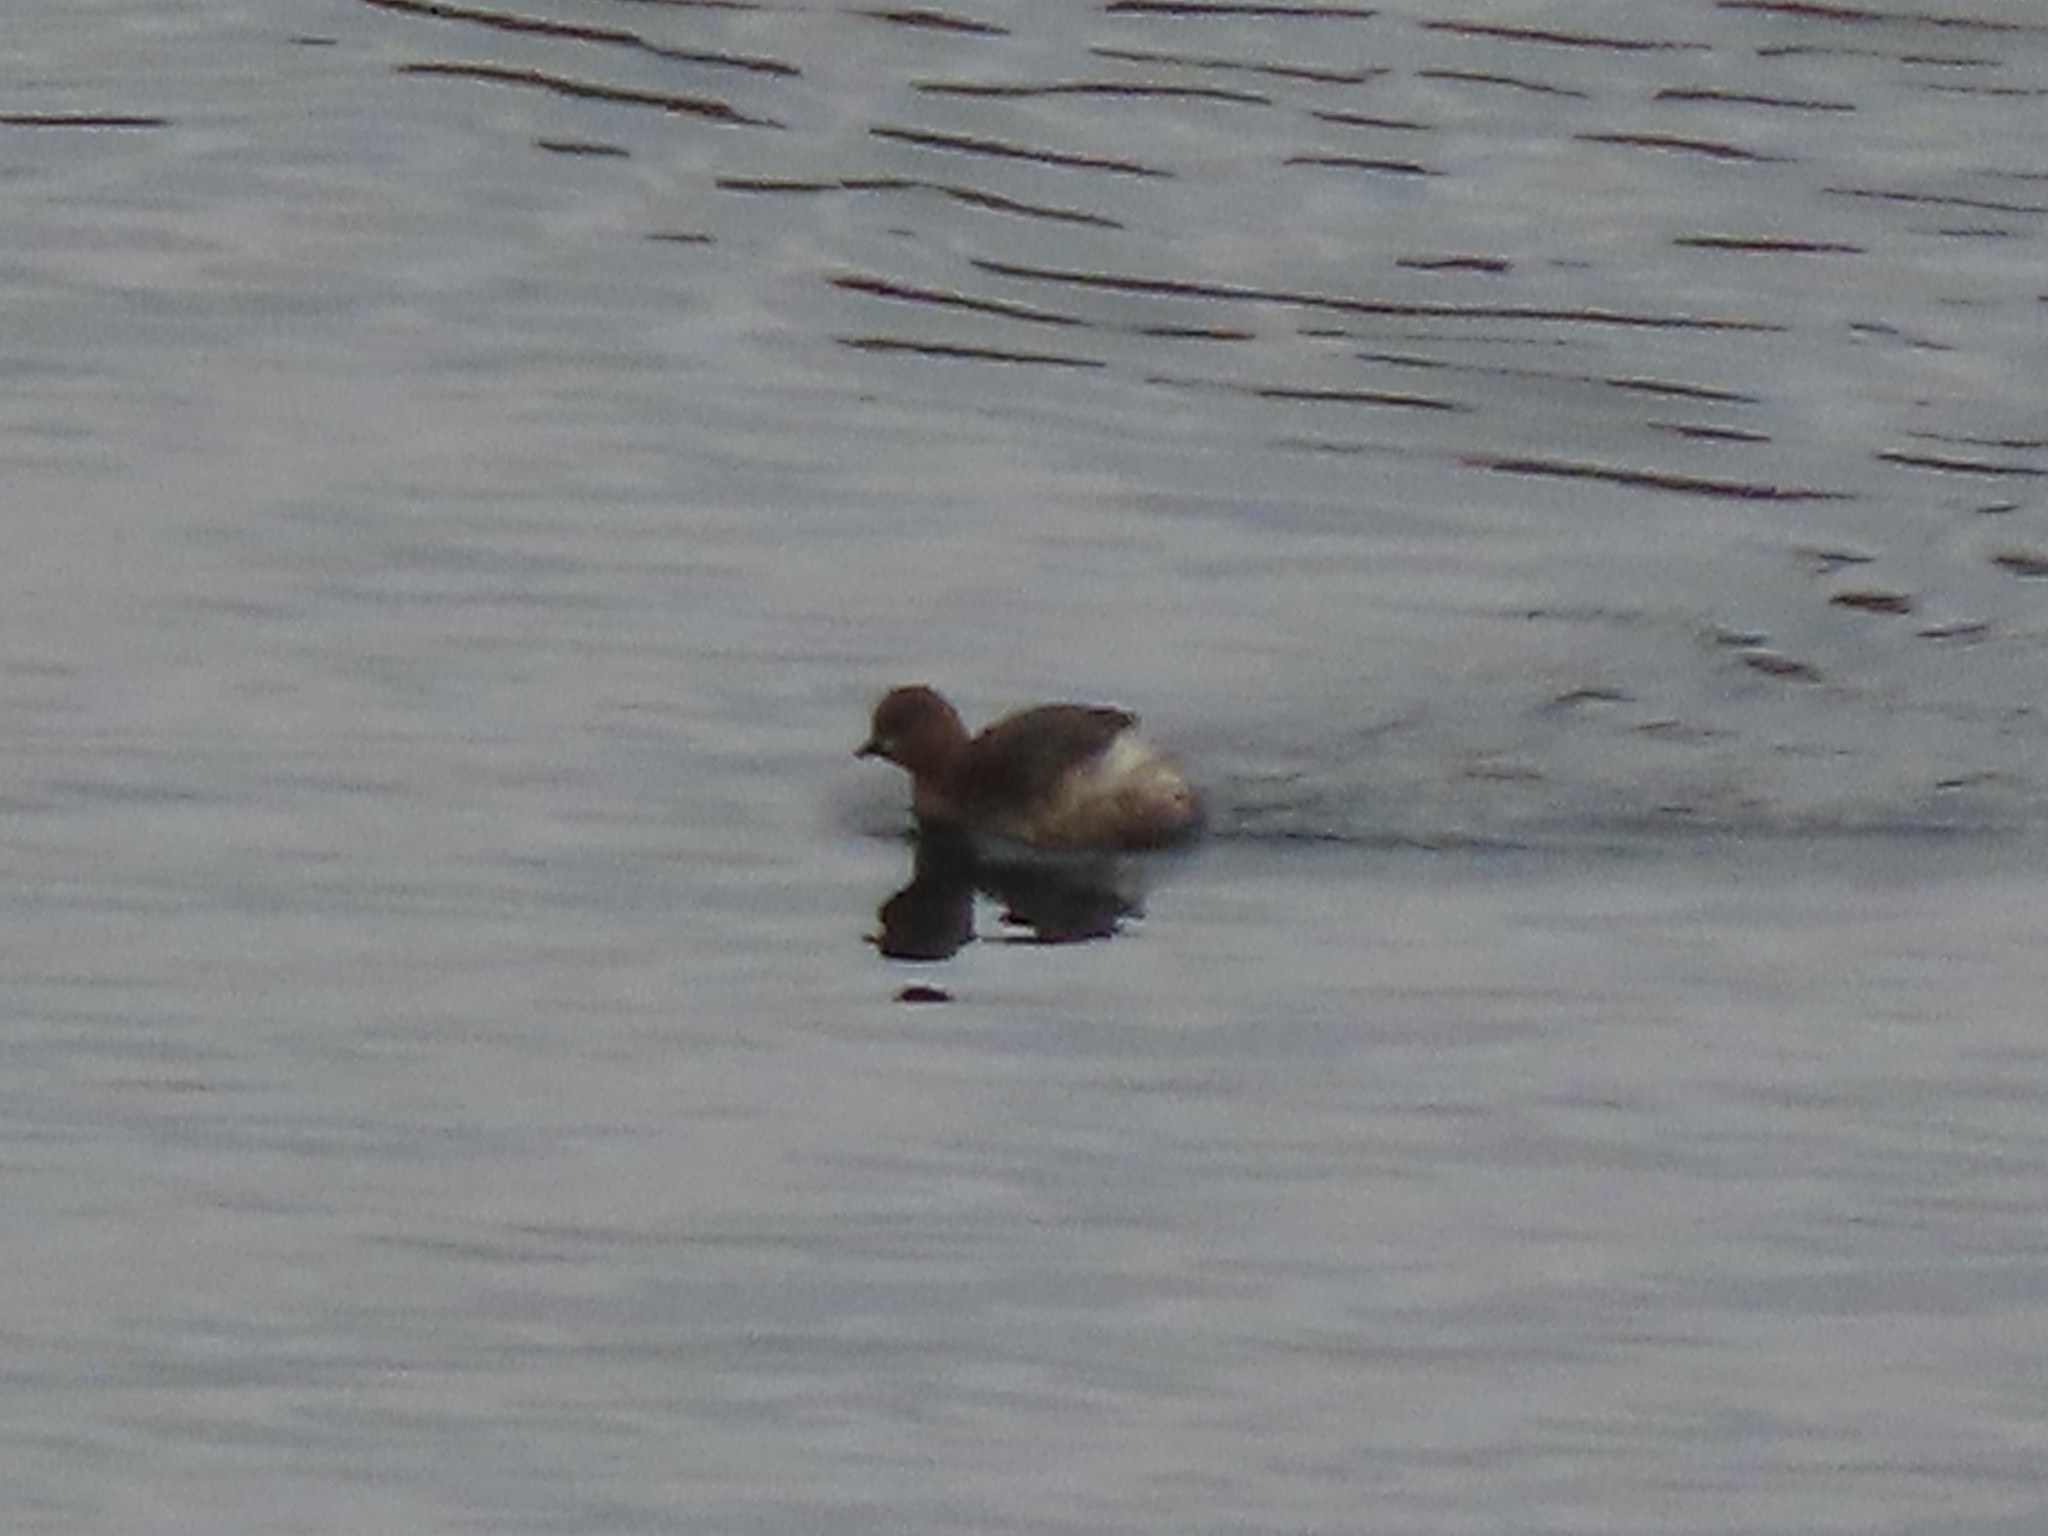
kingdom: Animalia
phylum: Chordata
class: Aves
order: Podicipediformes
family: Podicipedidae
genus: Tachybaptus
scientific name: Tachybaptus ruficollis
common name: Little grebe
